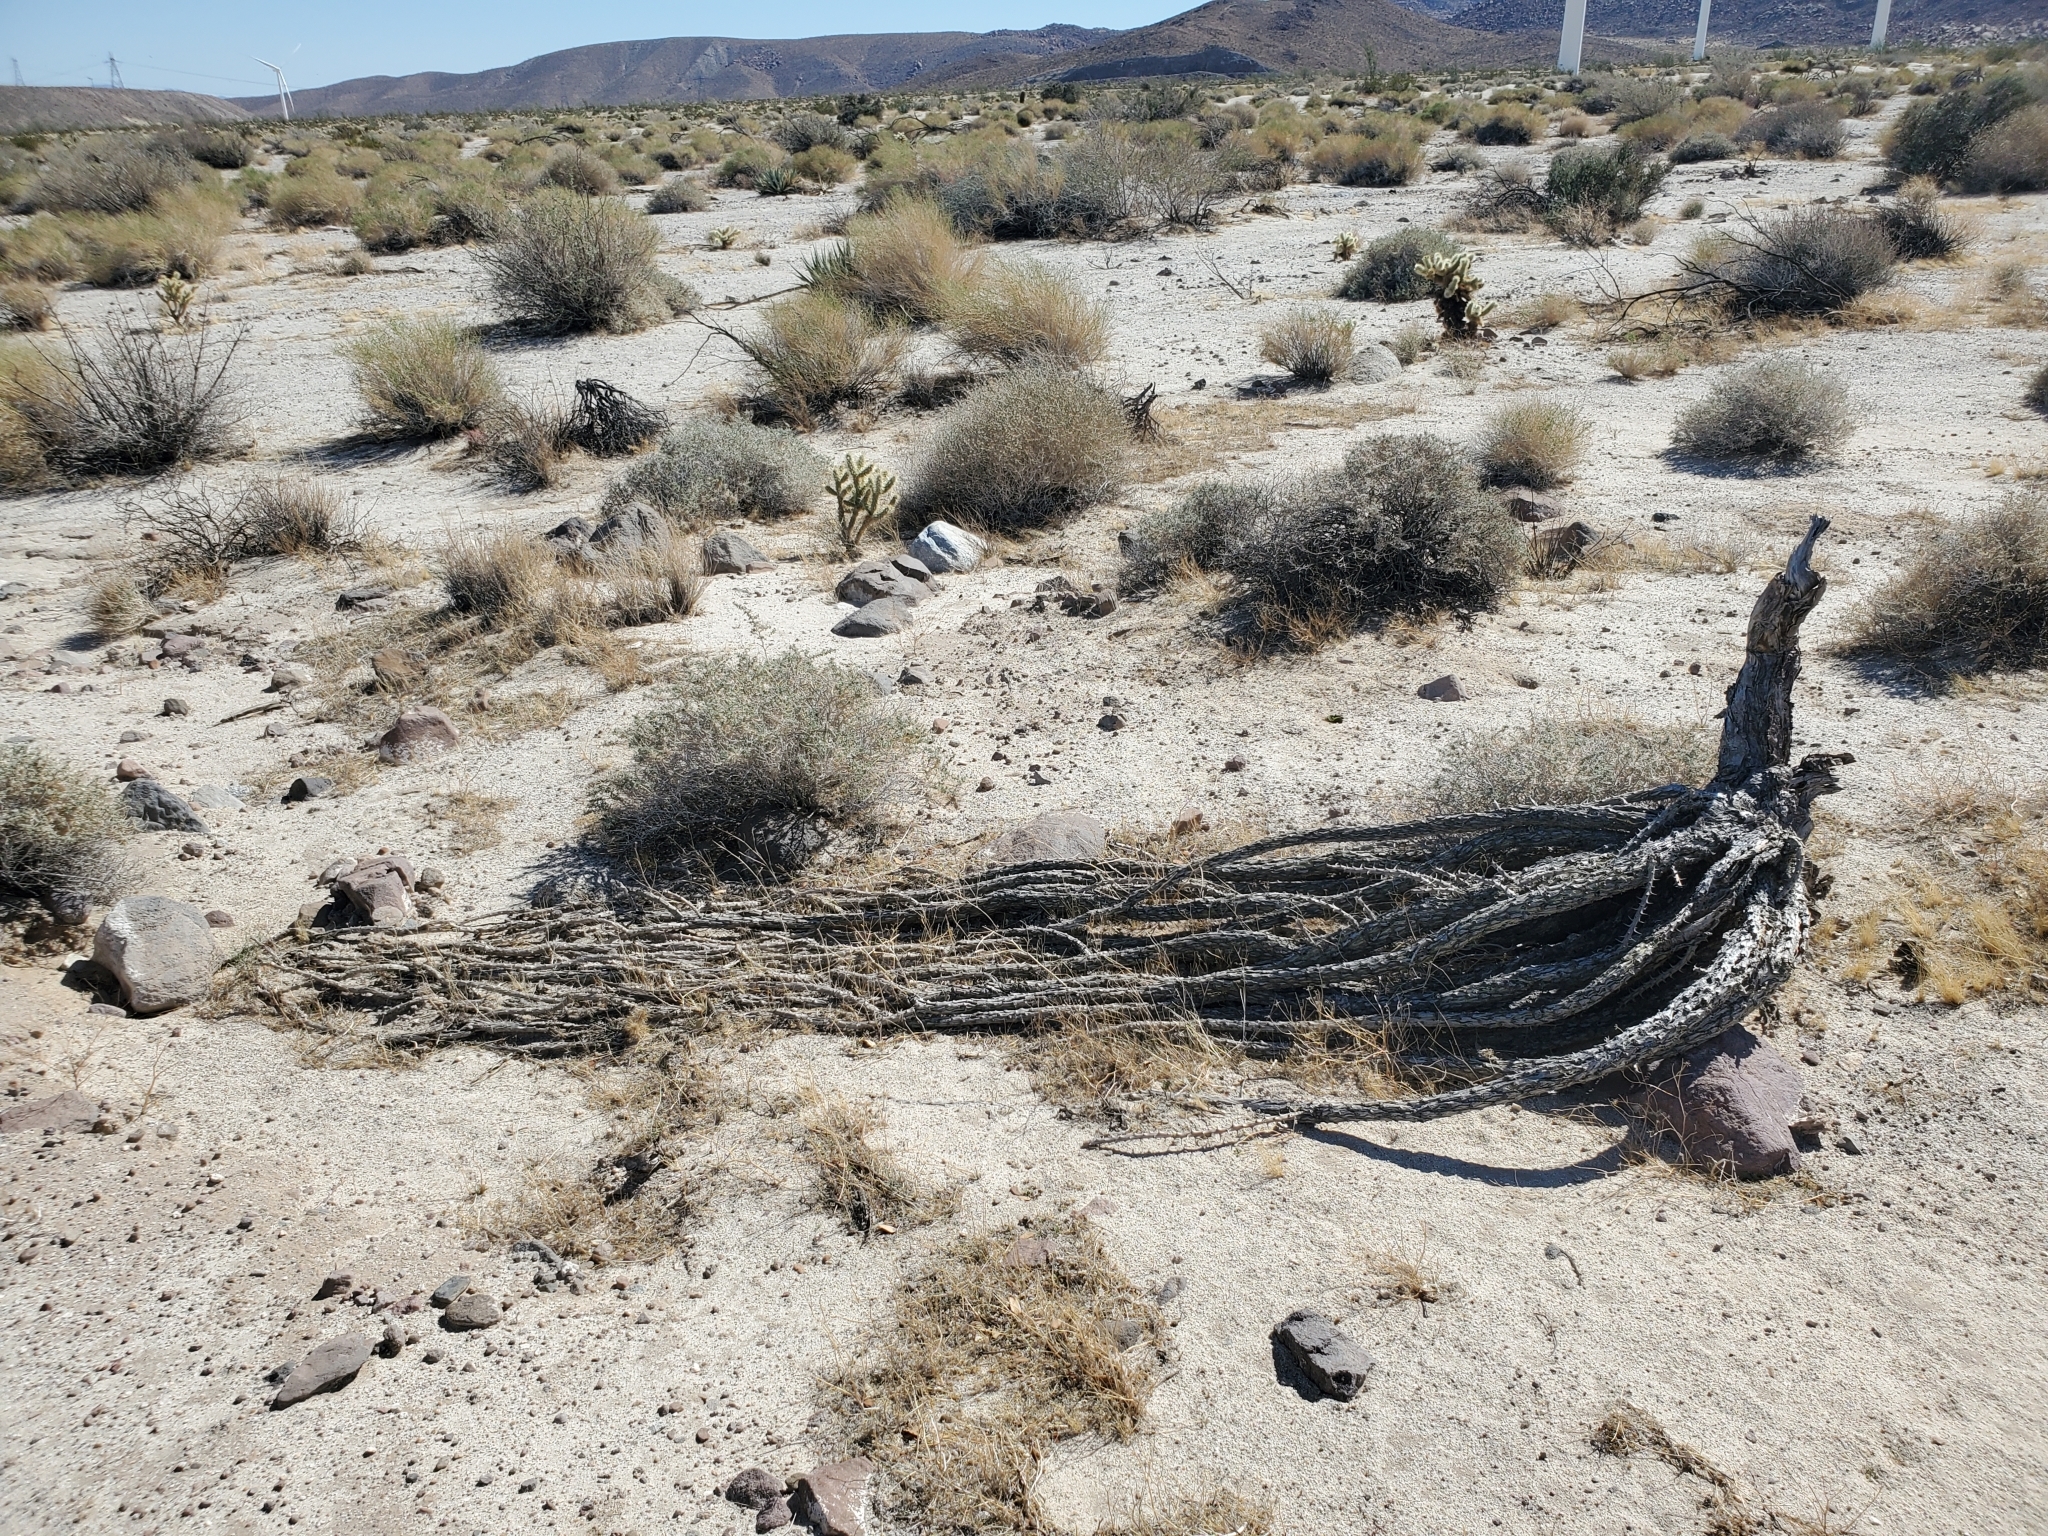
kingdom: Plantae
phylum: Tracheophyta
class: Magnoliopsida
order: Ericales
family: Fouquieriaceae
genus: Fouquieria
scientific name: Fouquieria splendens
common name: Vine-cactus
